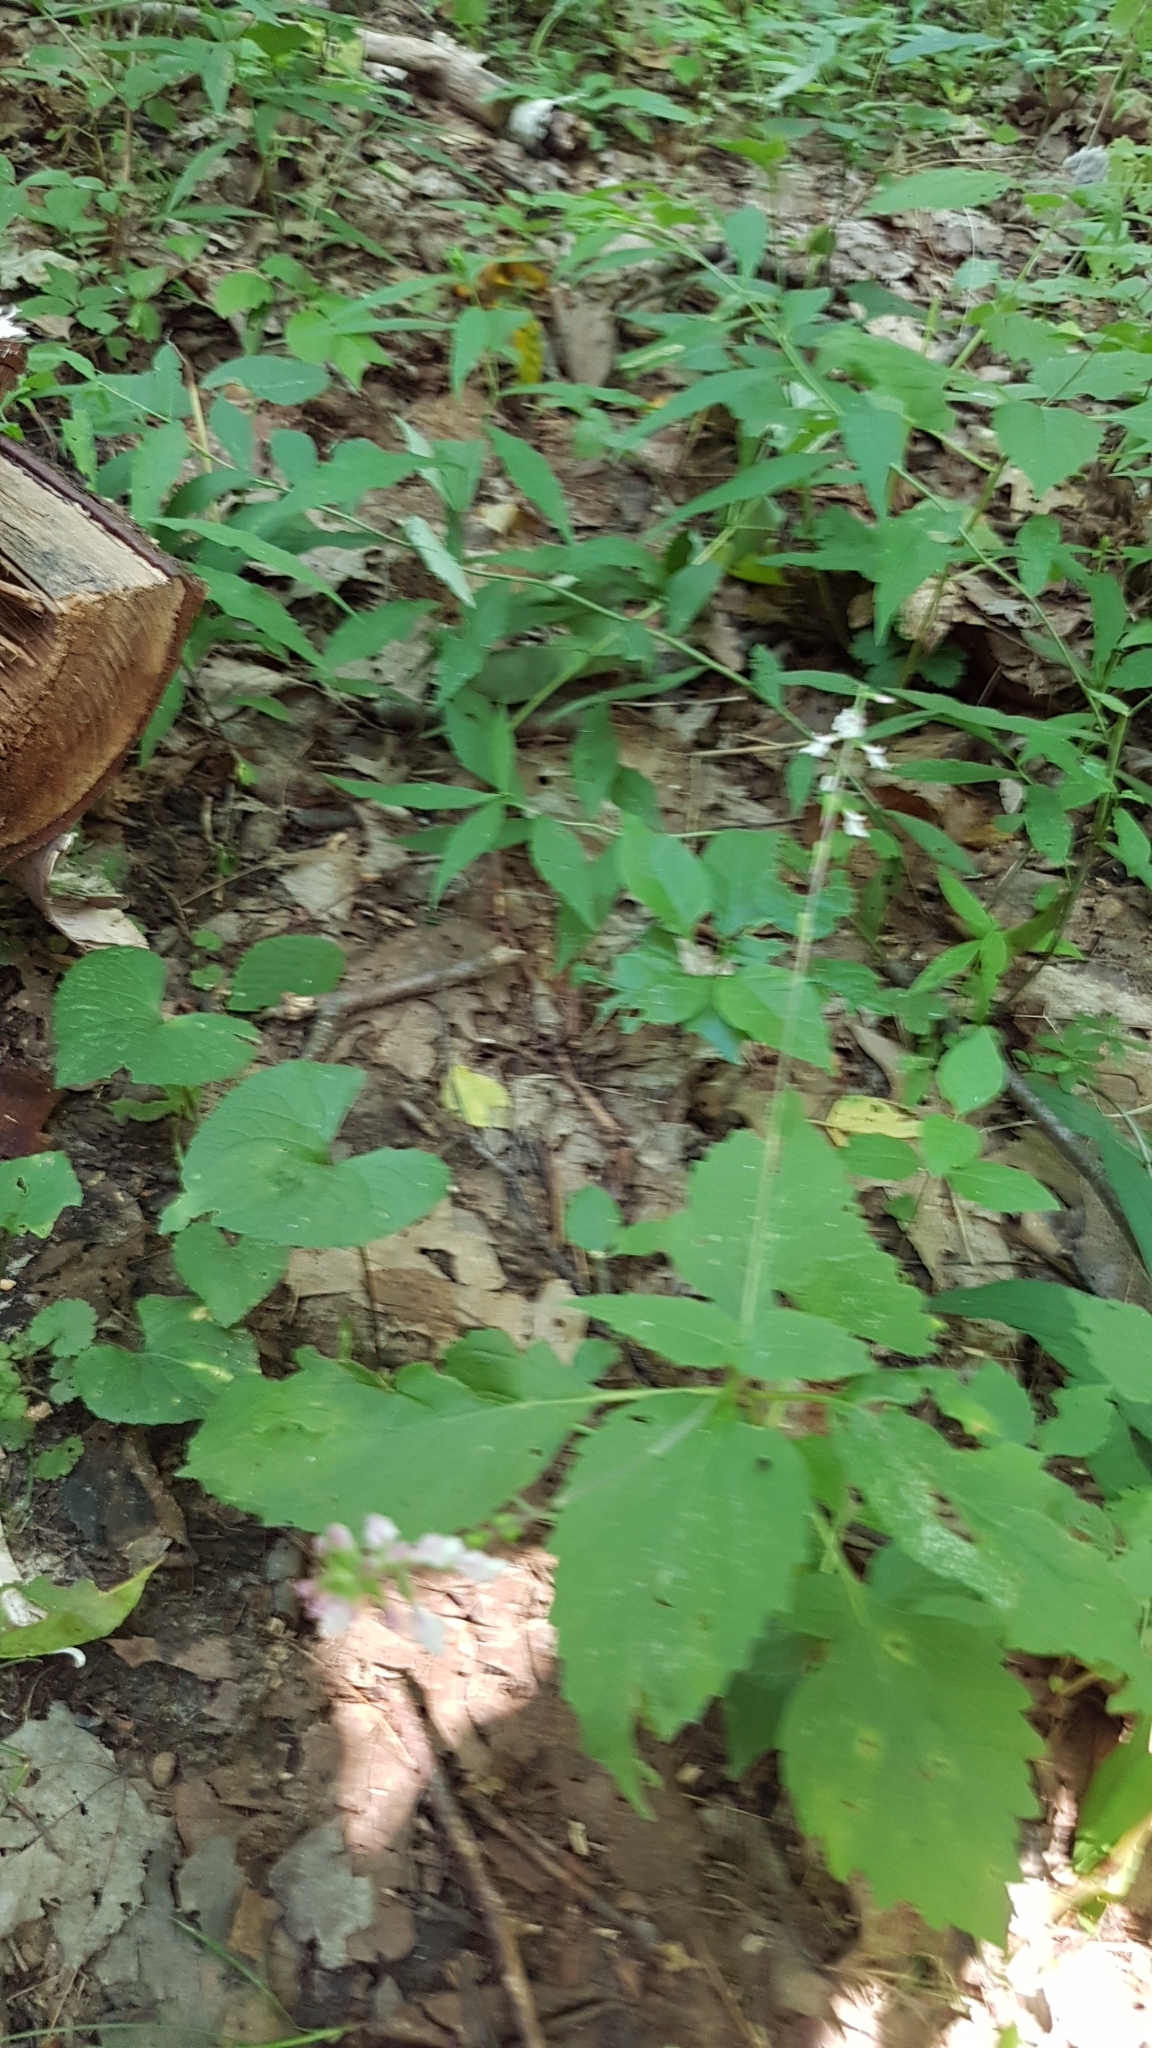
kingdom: Plantae
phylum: Tracheophyta
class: Magnoliopsida
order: Lamiales
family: Phrymaceae
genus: Phryma
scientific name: Phryma leptostachya
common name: American lopseed
